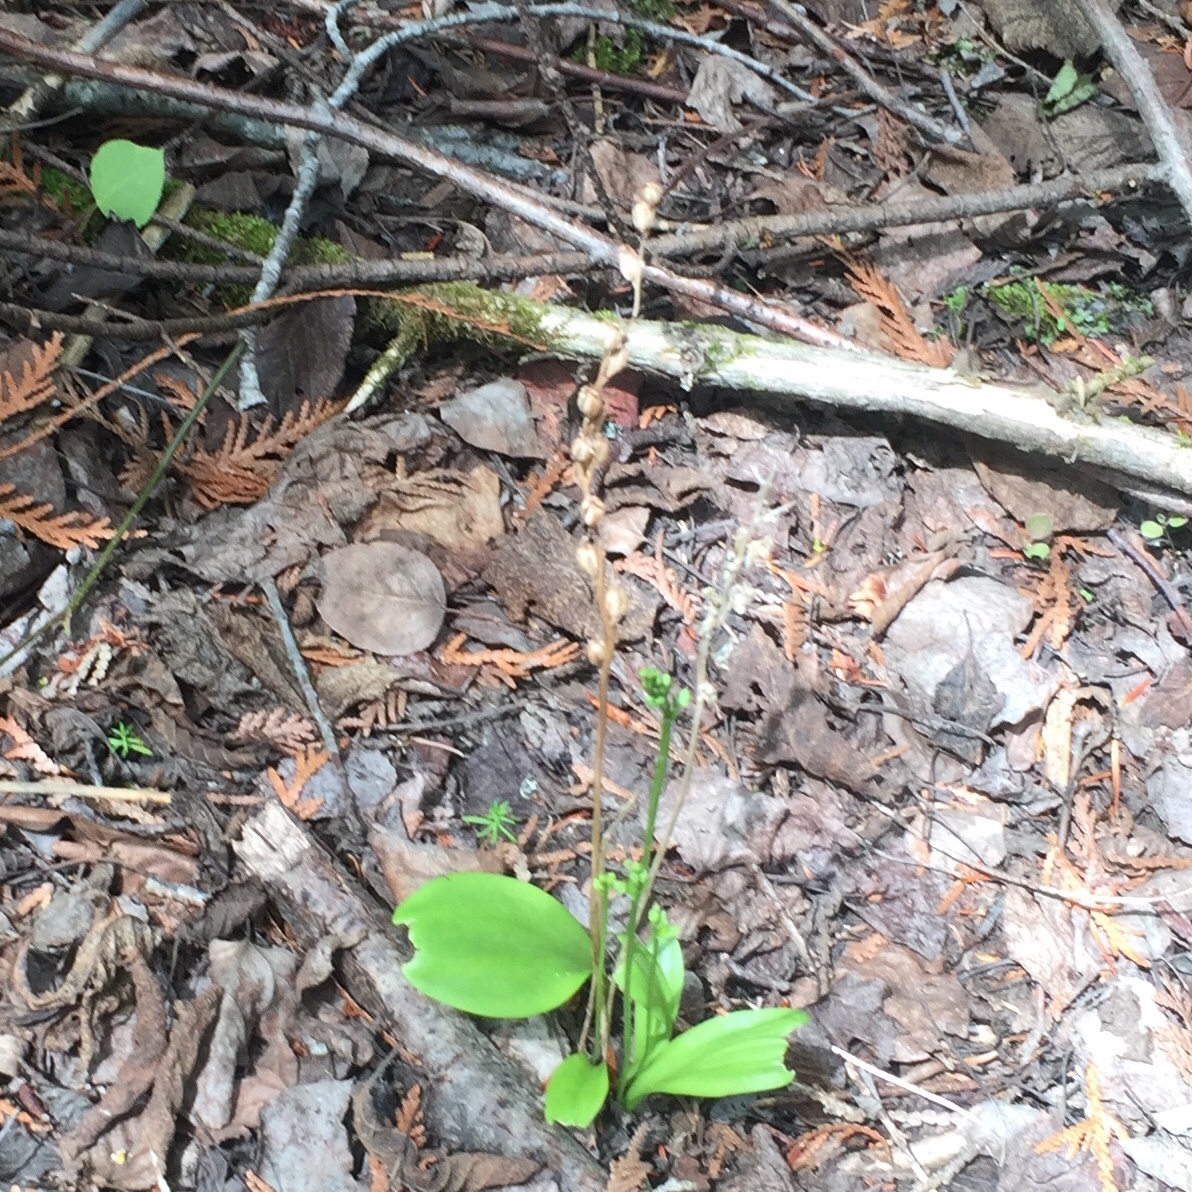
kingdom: Plantae
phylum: Tracheophyta
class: Liliopsida
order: Asparagales
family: Orchidaceae
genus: Platanthera
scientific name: Platanthera obtusata
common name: Blunt bog orchid
